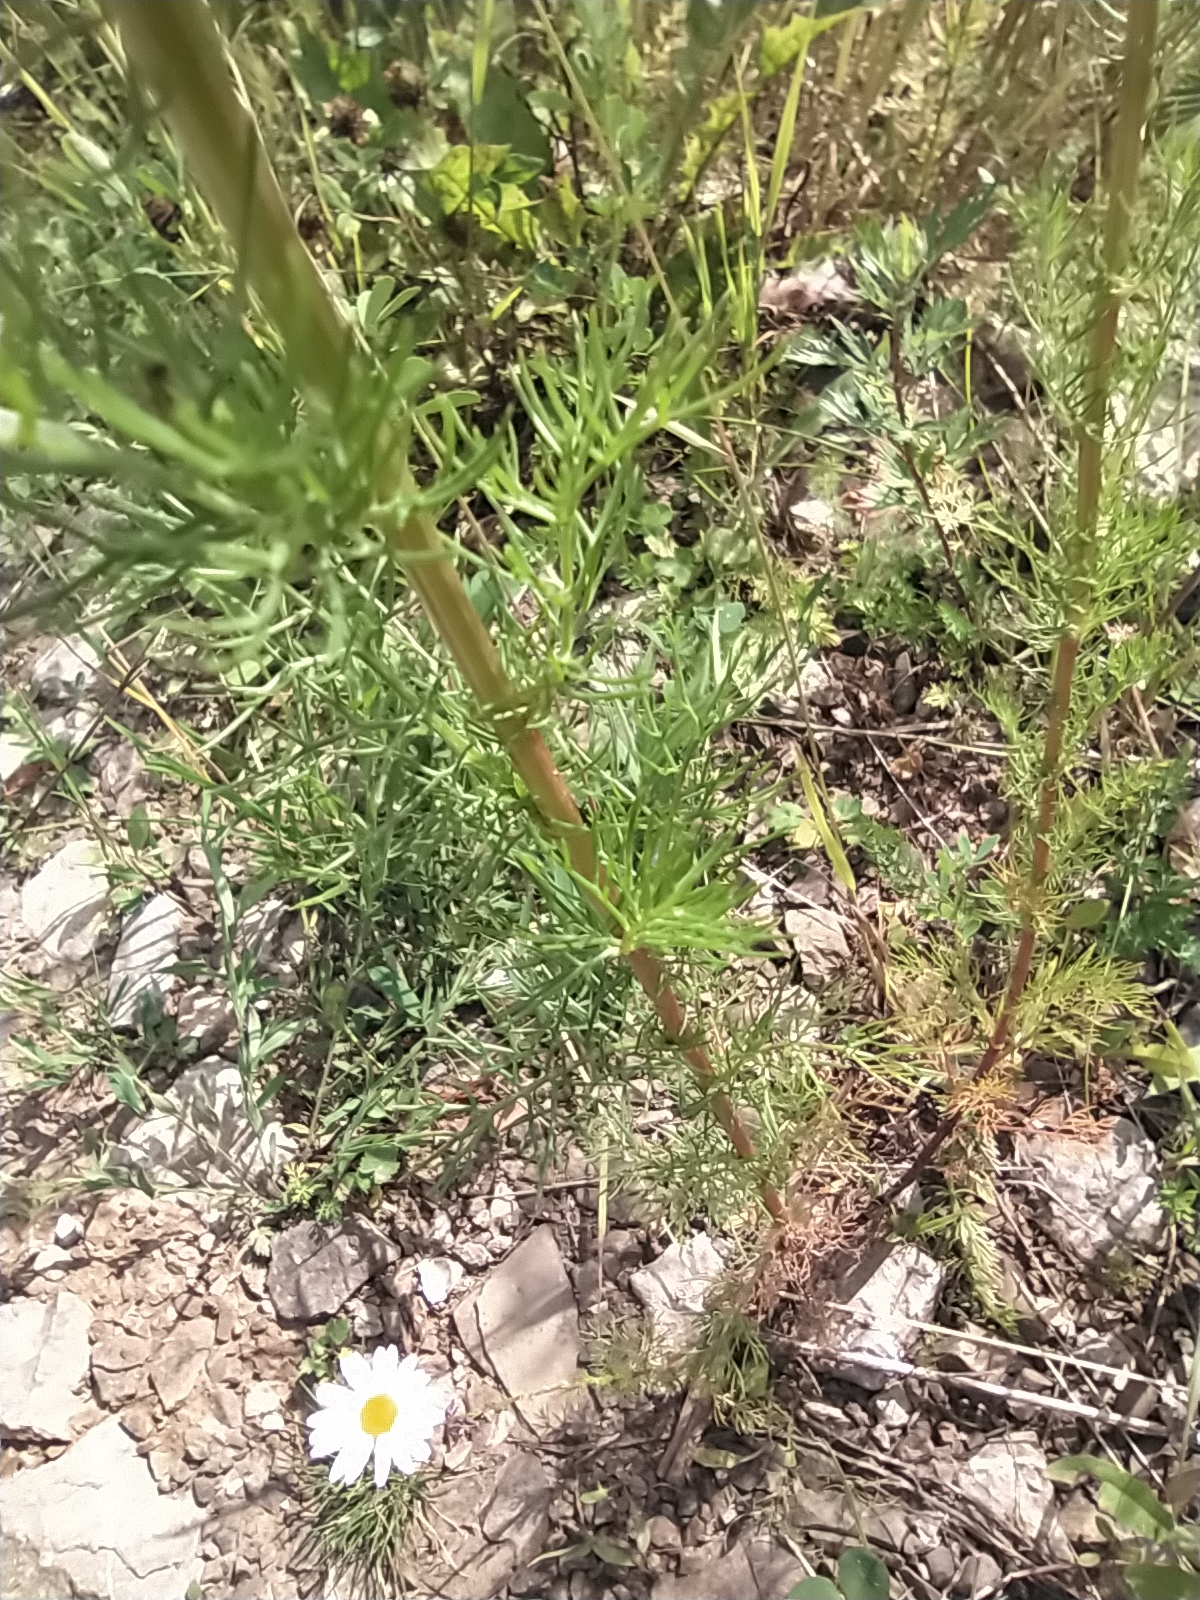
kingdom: Plantae
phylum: Tracheophyta
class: Magnoliopsida
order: Asterales
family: Asteraceae
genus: Tripleurospermum
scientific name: Tripleurospermum inodorum
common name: Scentless mayweed
